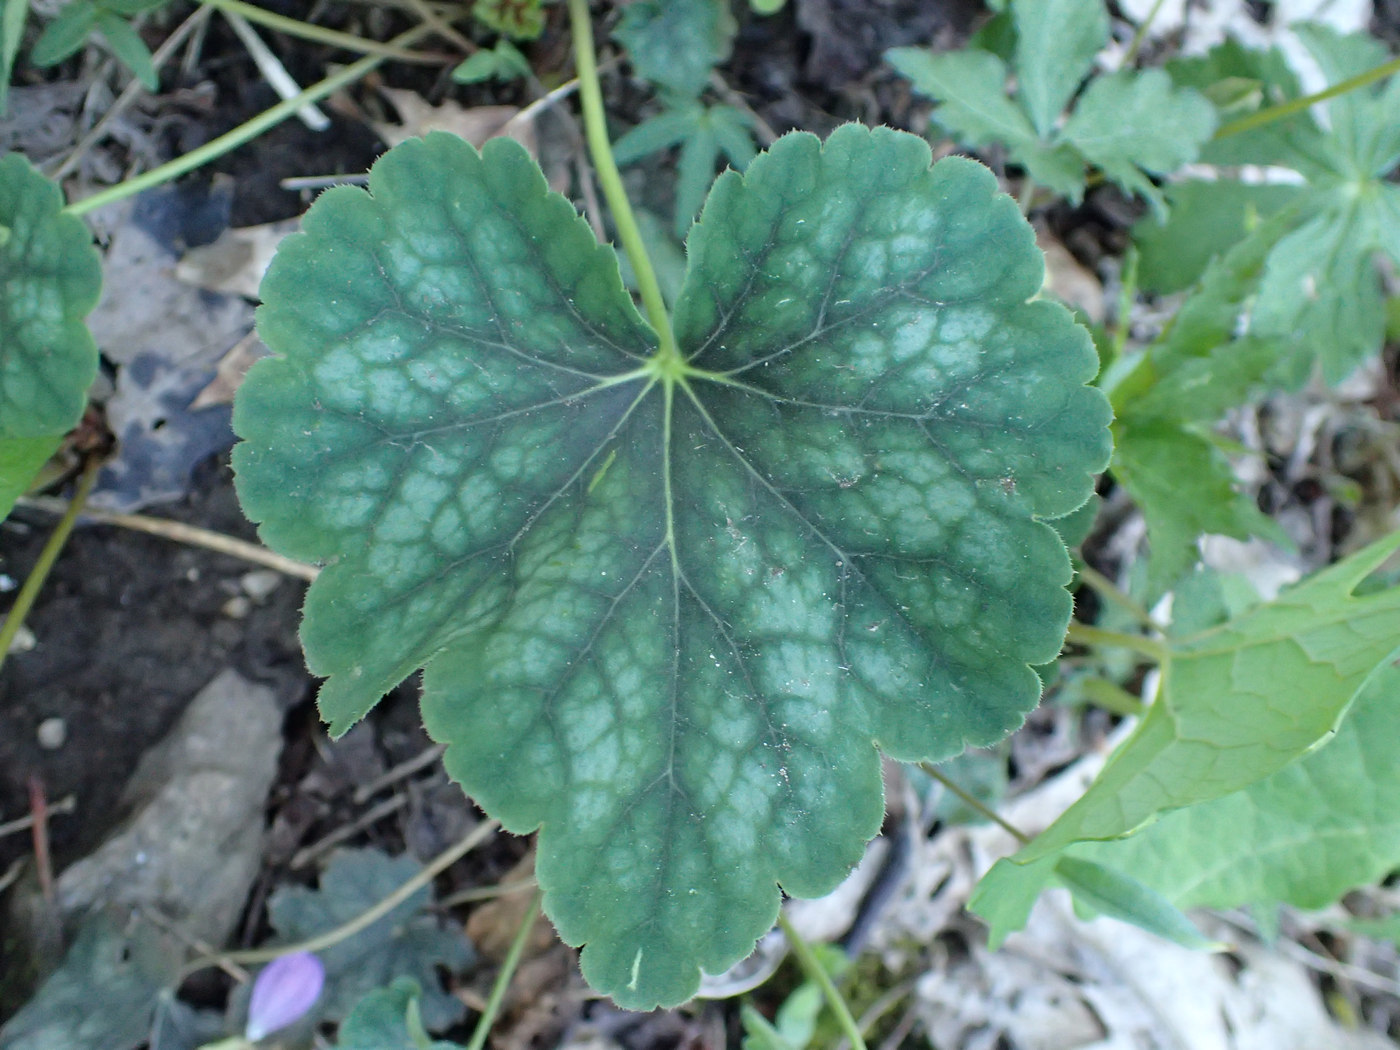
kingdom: Plantae
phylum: Tracheophyta
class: Magnoliopsida
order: Saxifragales
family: Saxifragaceae
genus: Heuchera
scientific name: Heuchera americana
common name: Alumroot
